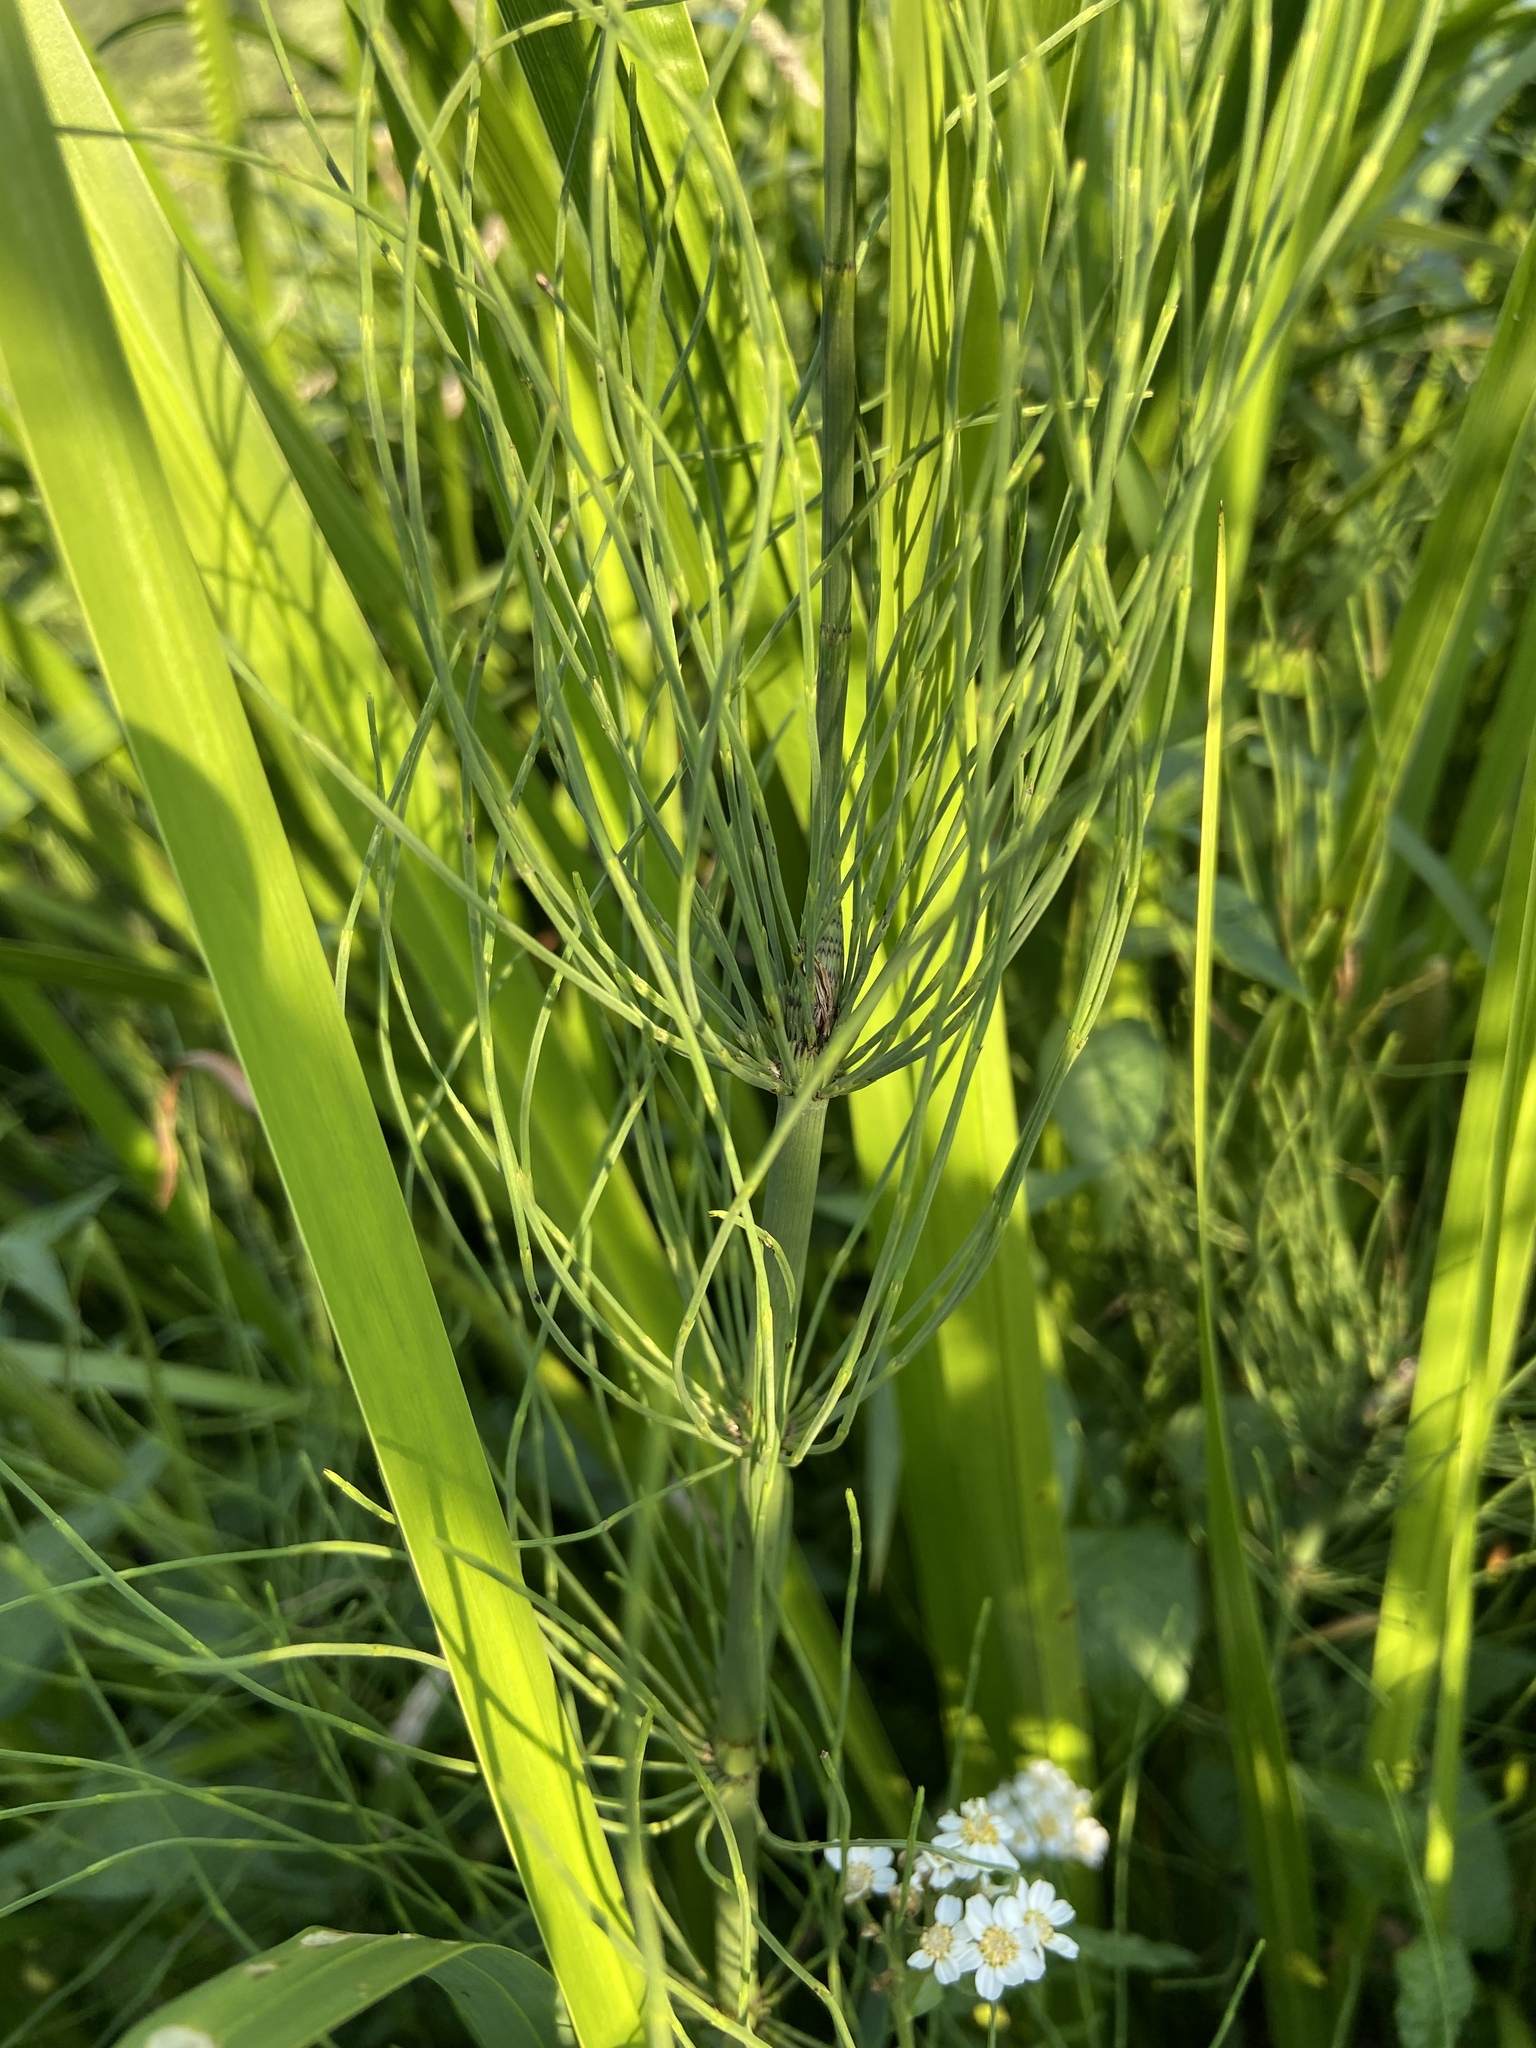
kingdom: Plantae
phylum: Tracheophyta
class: Polypodiopsida
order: Equisetales
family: Equisetaceae
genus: Equisetum
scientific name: Equisetum fluviatile
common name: Water horsetail
